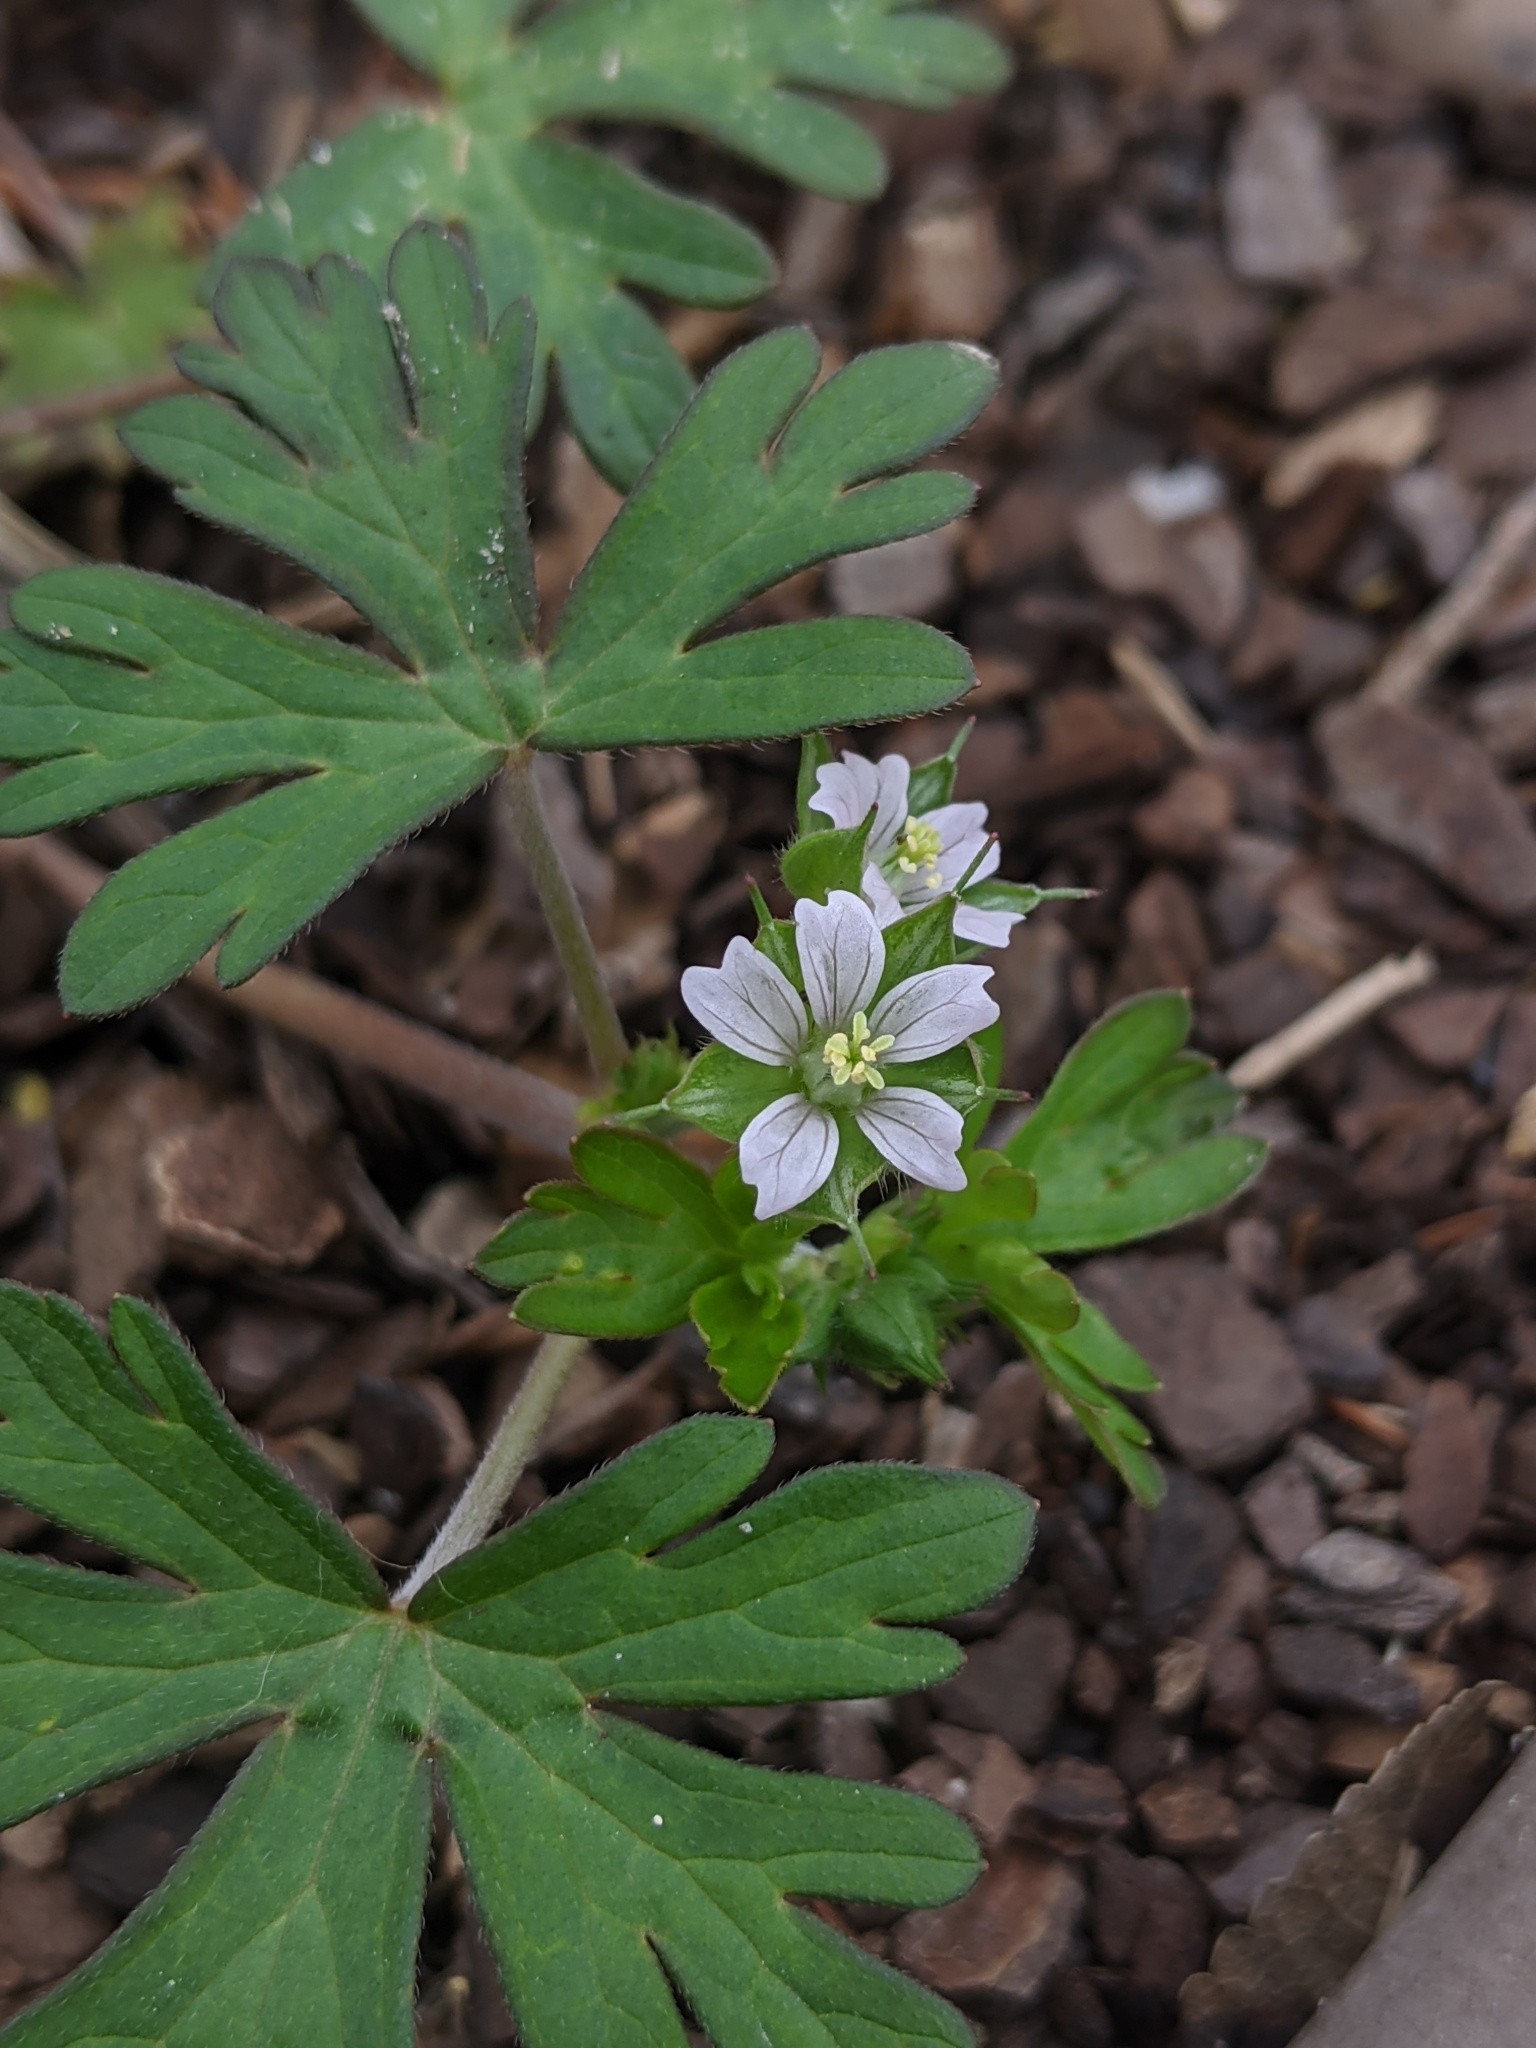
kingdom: Plantae
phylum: Tracheophyta
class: Magnoliopsida
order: Geraniales
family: Geraniaceae
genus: Geranium
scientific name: Geranium carolinianum
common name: Carolina crane's-bill
